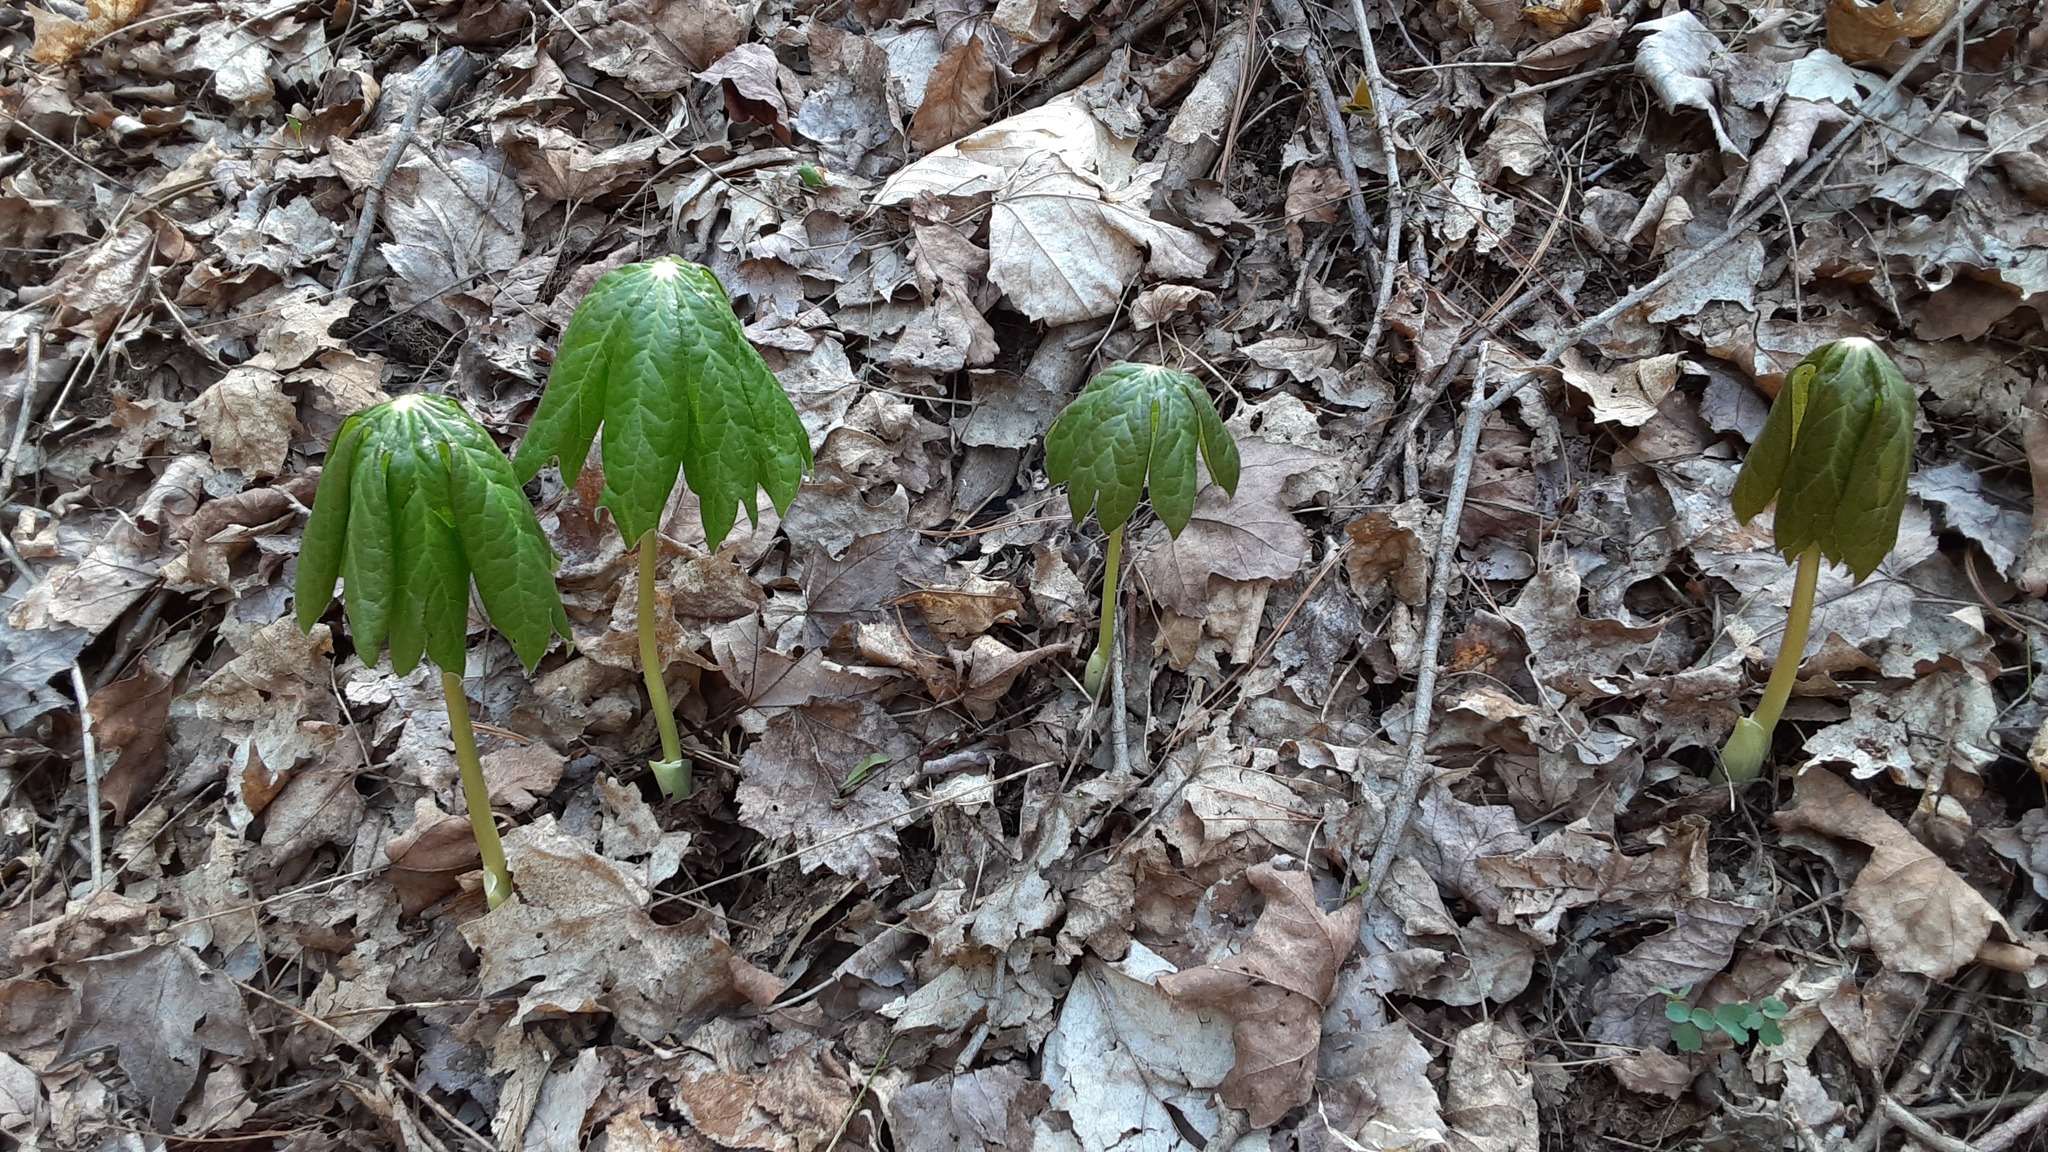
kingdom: Plantae
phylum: Tracheophyta
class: Magnoliopsida
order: Ranunculales
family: Berberidaceae
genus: Podophyllum
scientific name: Podophyllum peltatum
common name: Wild mandrake
